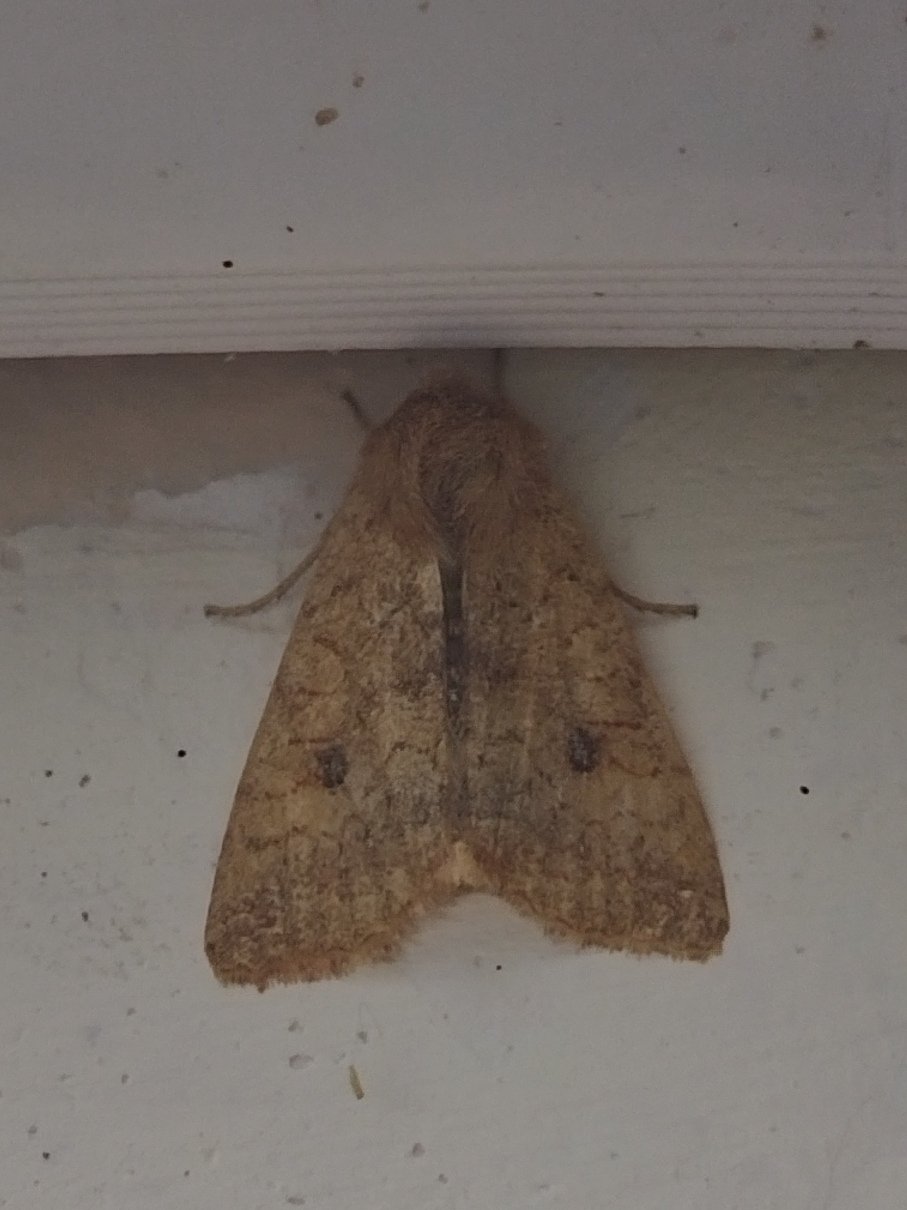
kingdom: Animalia
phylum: Arthropoda
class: Insecta
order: Lepidoptera
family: Noctuidae
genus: Sunira
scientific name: Sunira circellaris
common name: Brick
